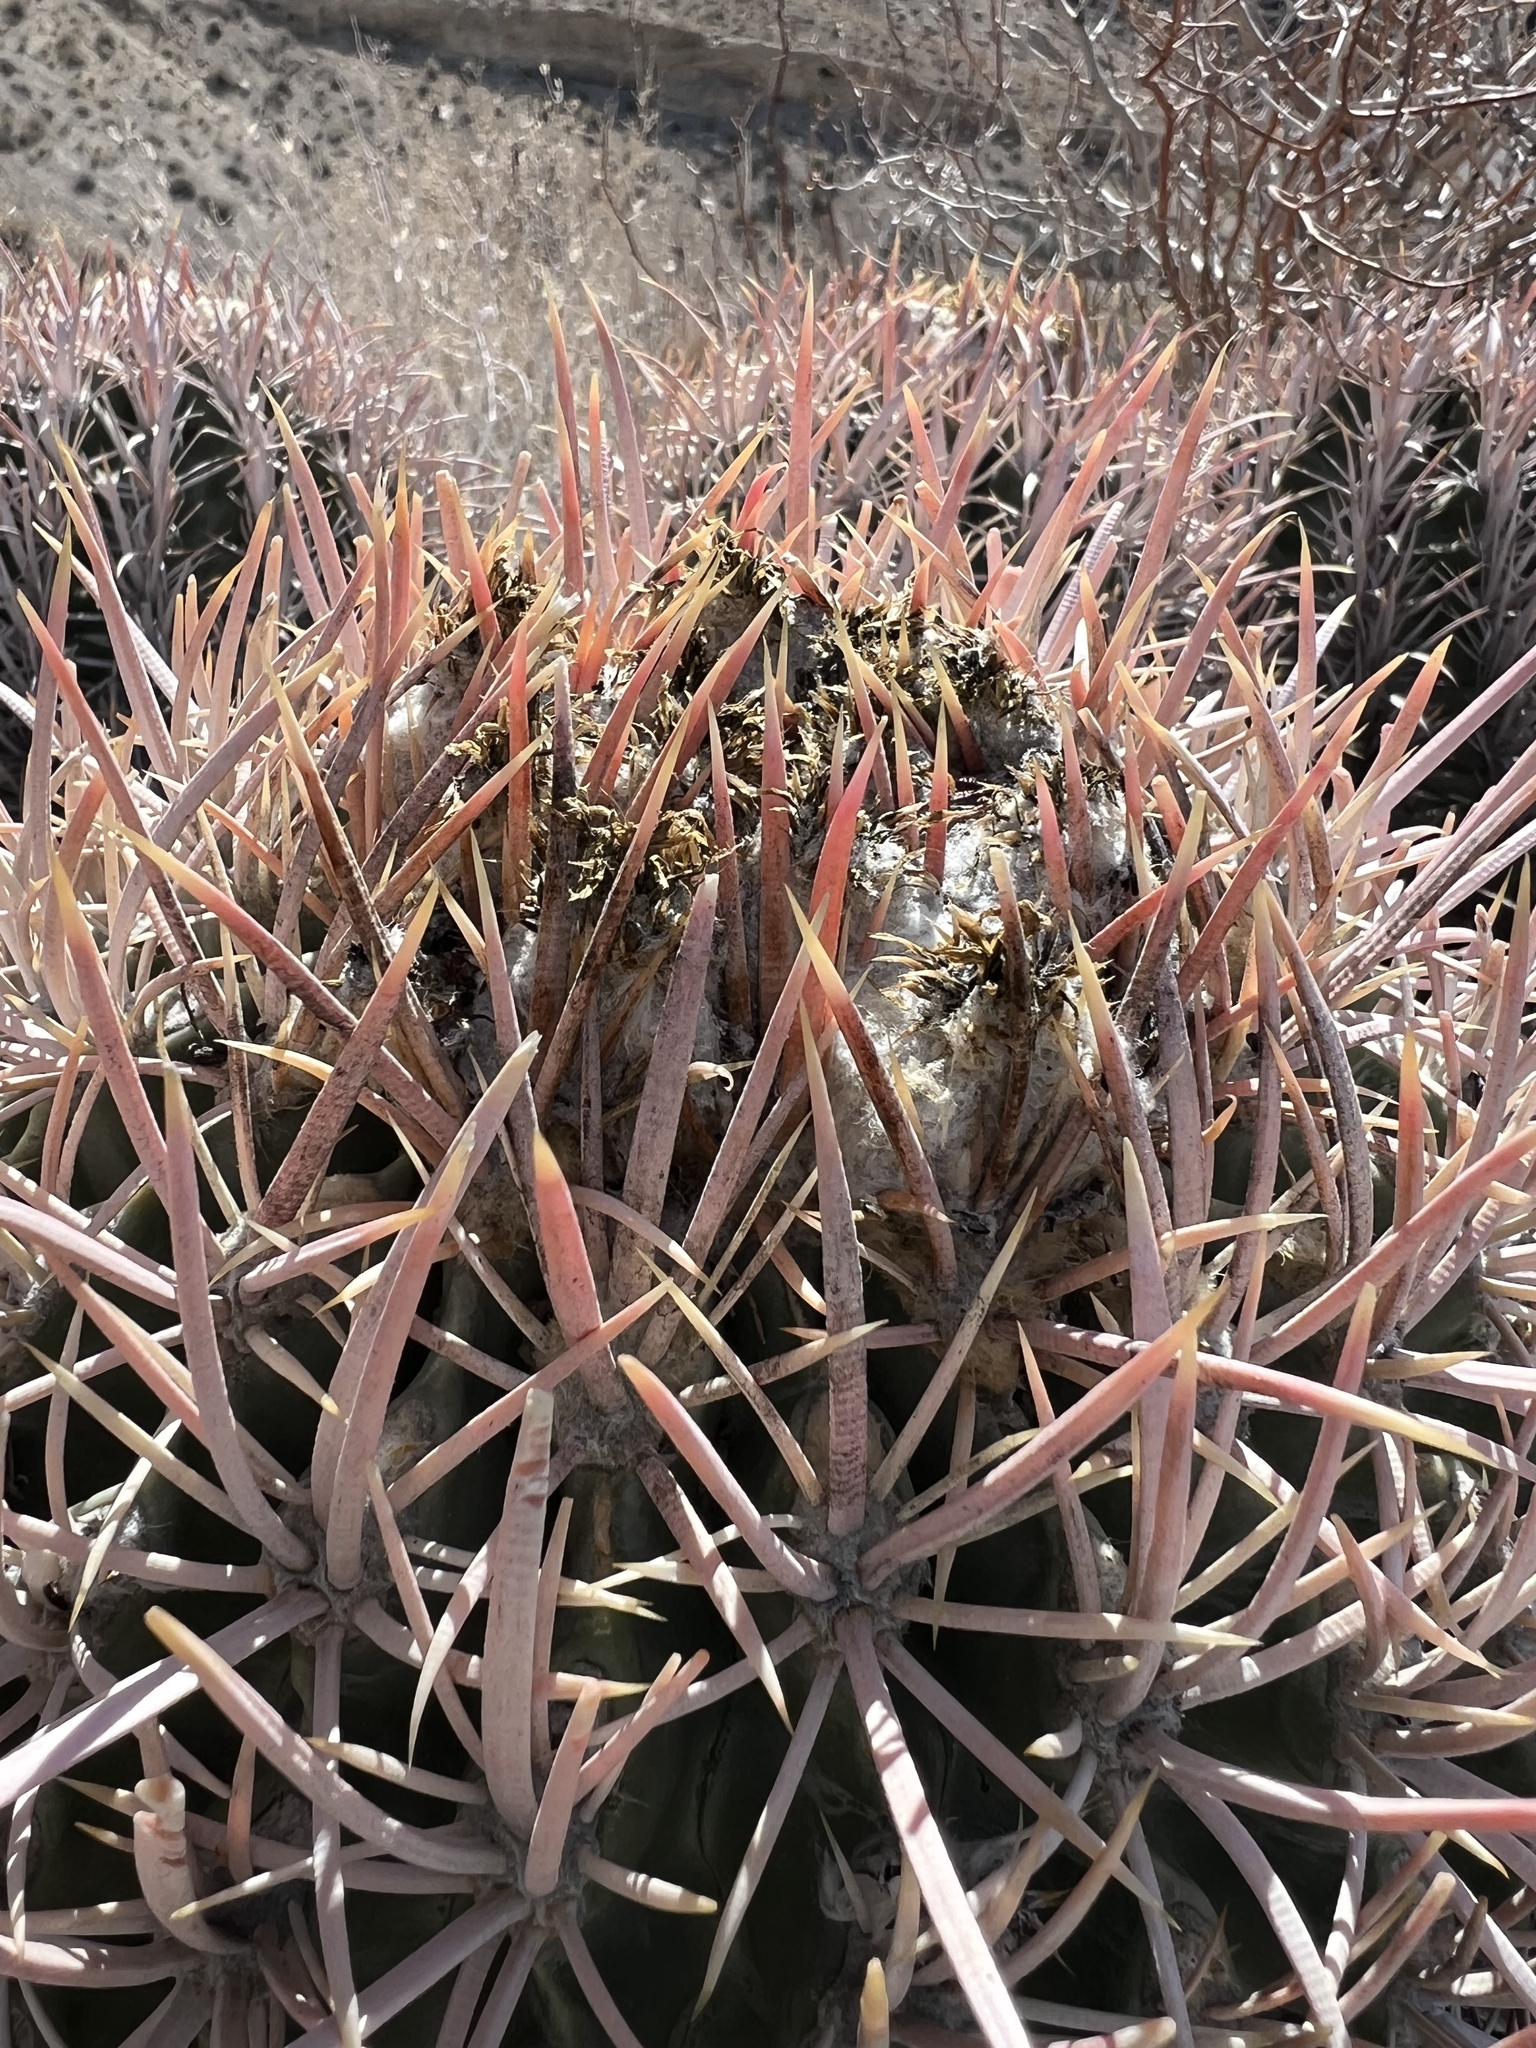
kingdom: Plantae
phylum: Tracheophyta
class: Magnoliopsida
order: Caryophyllales
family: Cactaceae
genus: Echinocactus
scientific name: Echinocactus polycephalus
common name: Cottontop cactus
